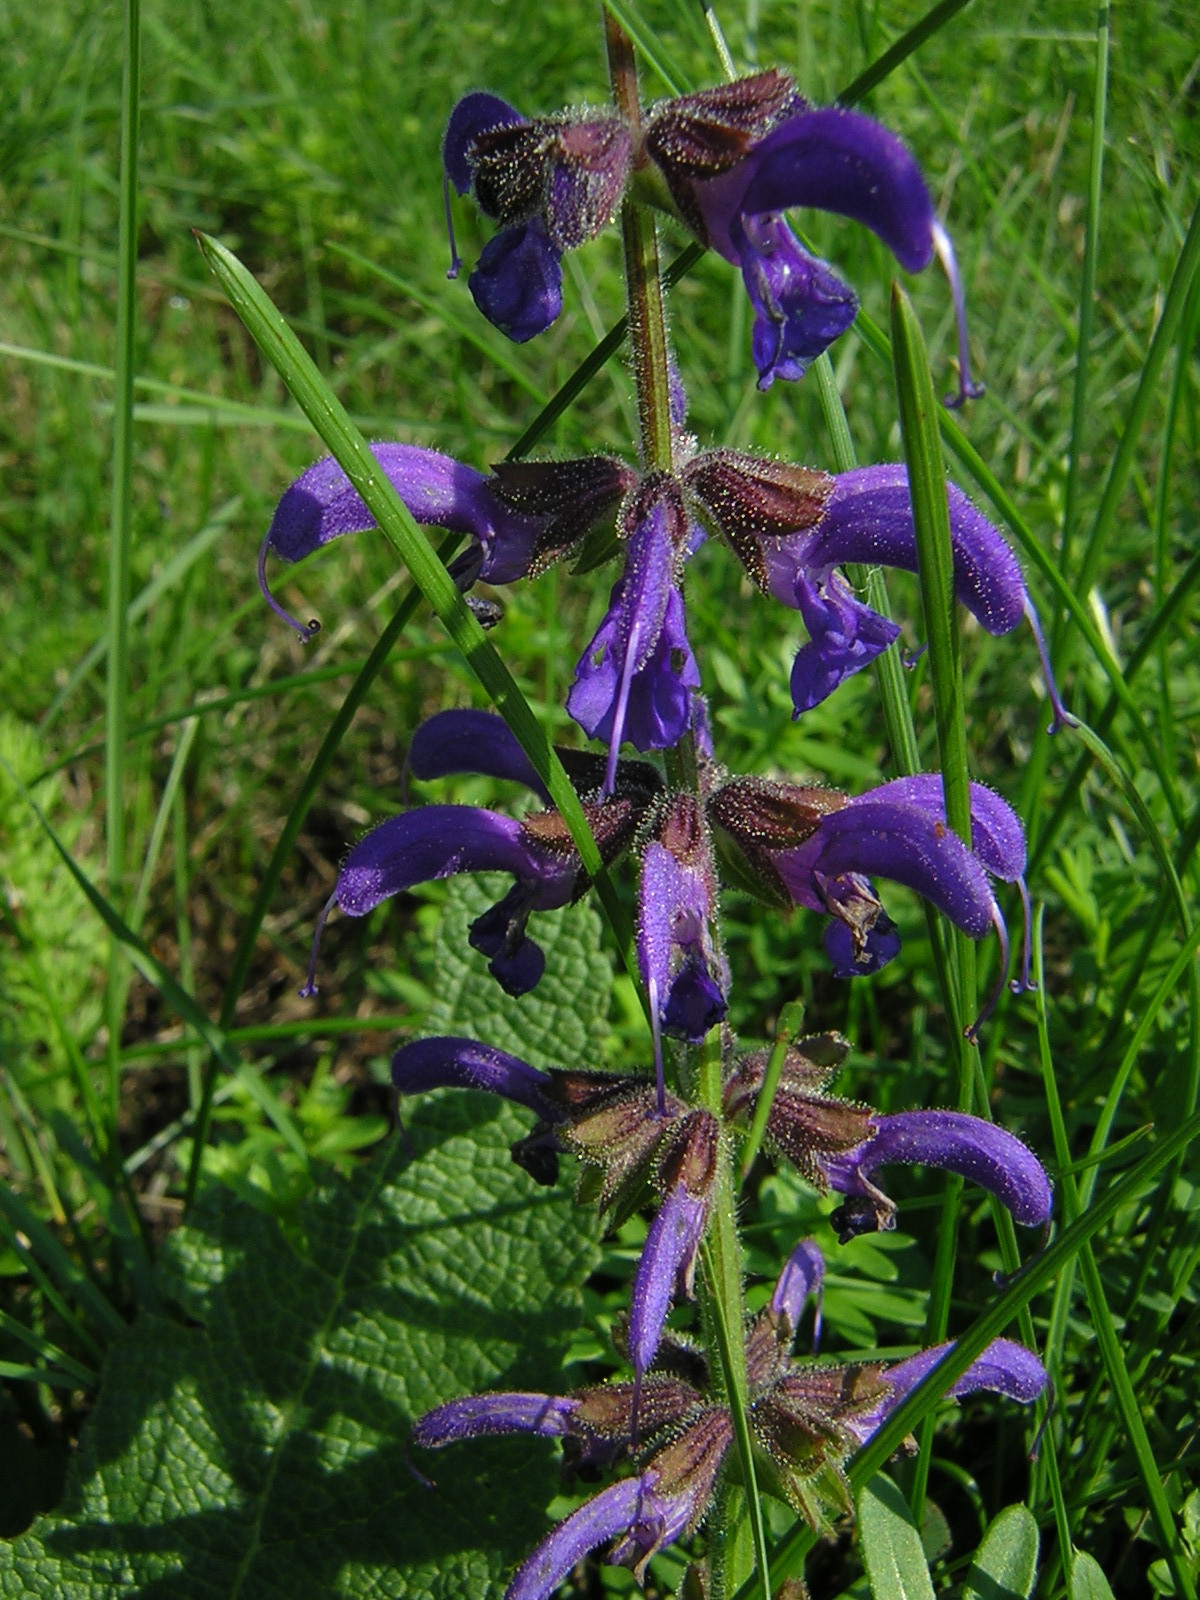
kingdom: Plantae
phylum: Tracheophyta
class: Magnoliopsida
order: Lamiales
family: Lamiaceae
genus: Salvia
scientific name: Salvia pratensis
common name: Meadow sage
